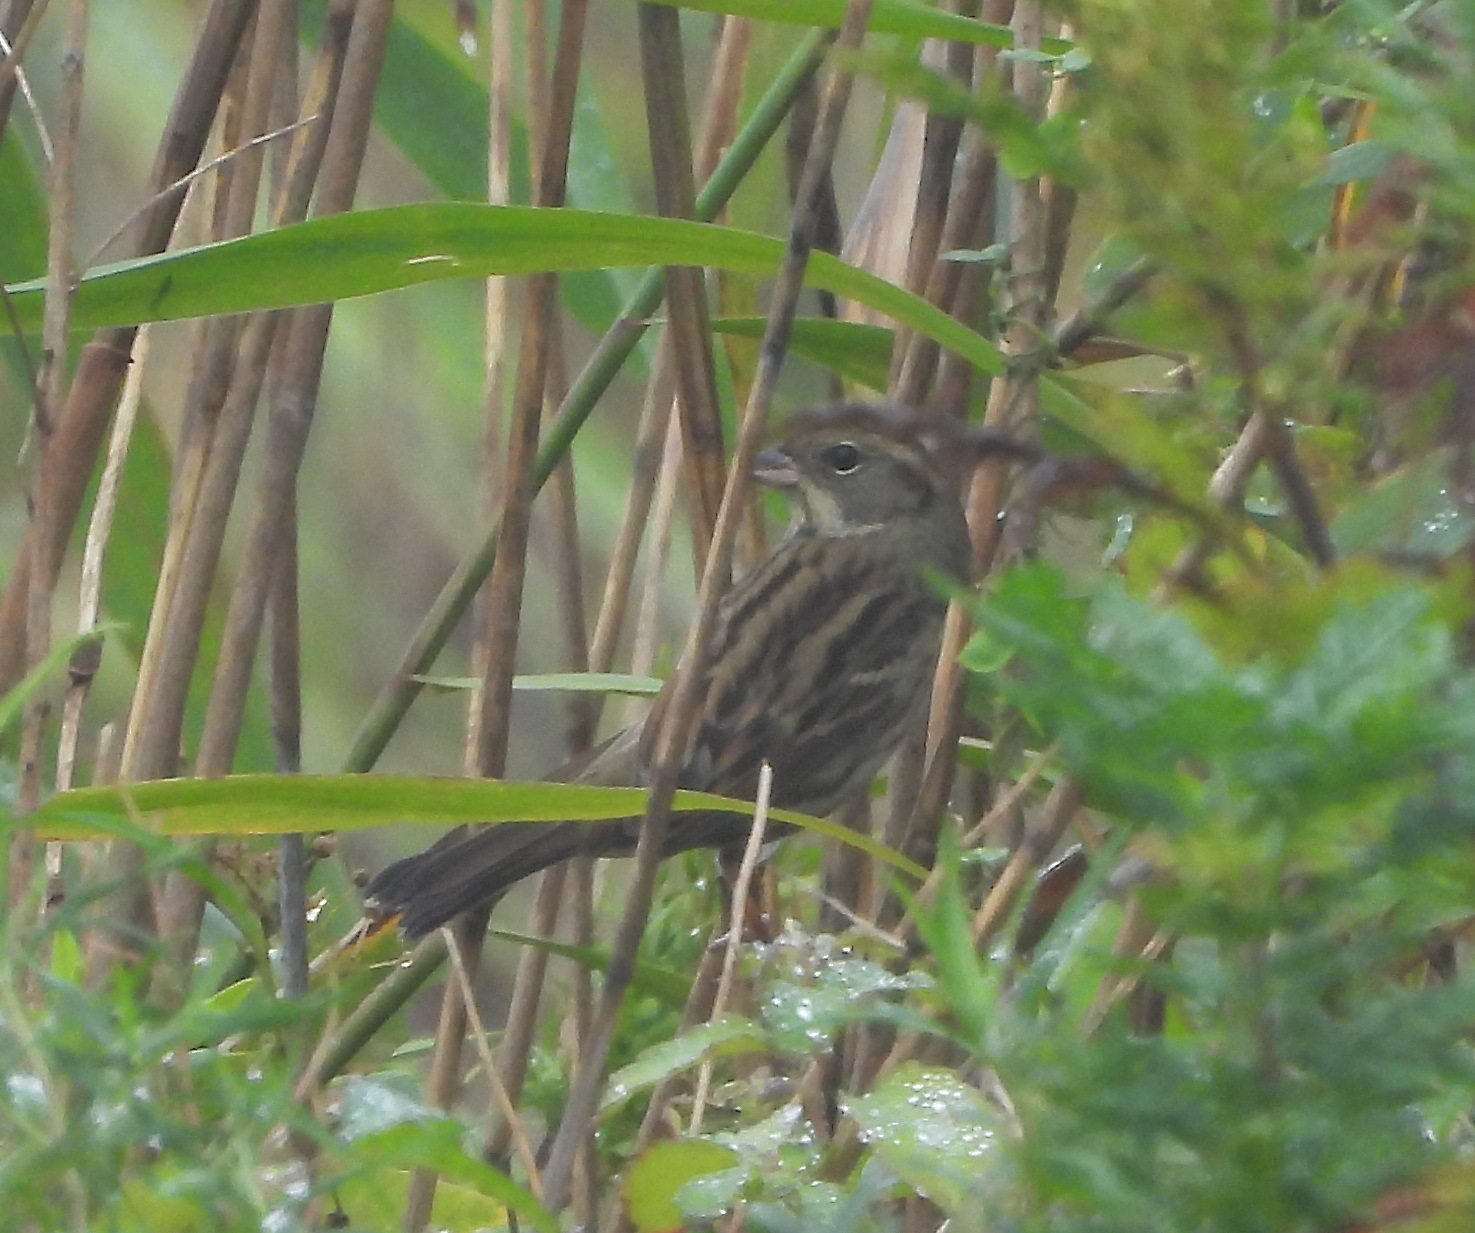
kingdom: Animalia
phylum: Chordata
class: Aves
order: Passeriformes
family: Emberizidae
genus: Emberiza
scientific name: Emberiza spodocephala
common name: Black-faced bunting
